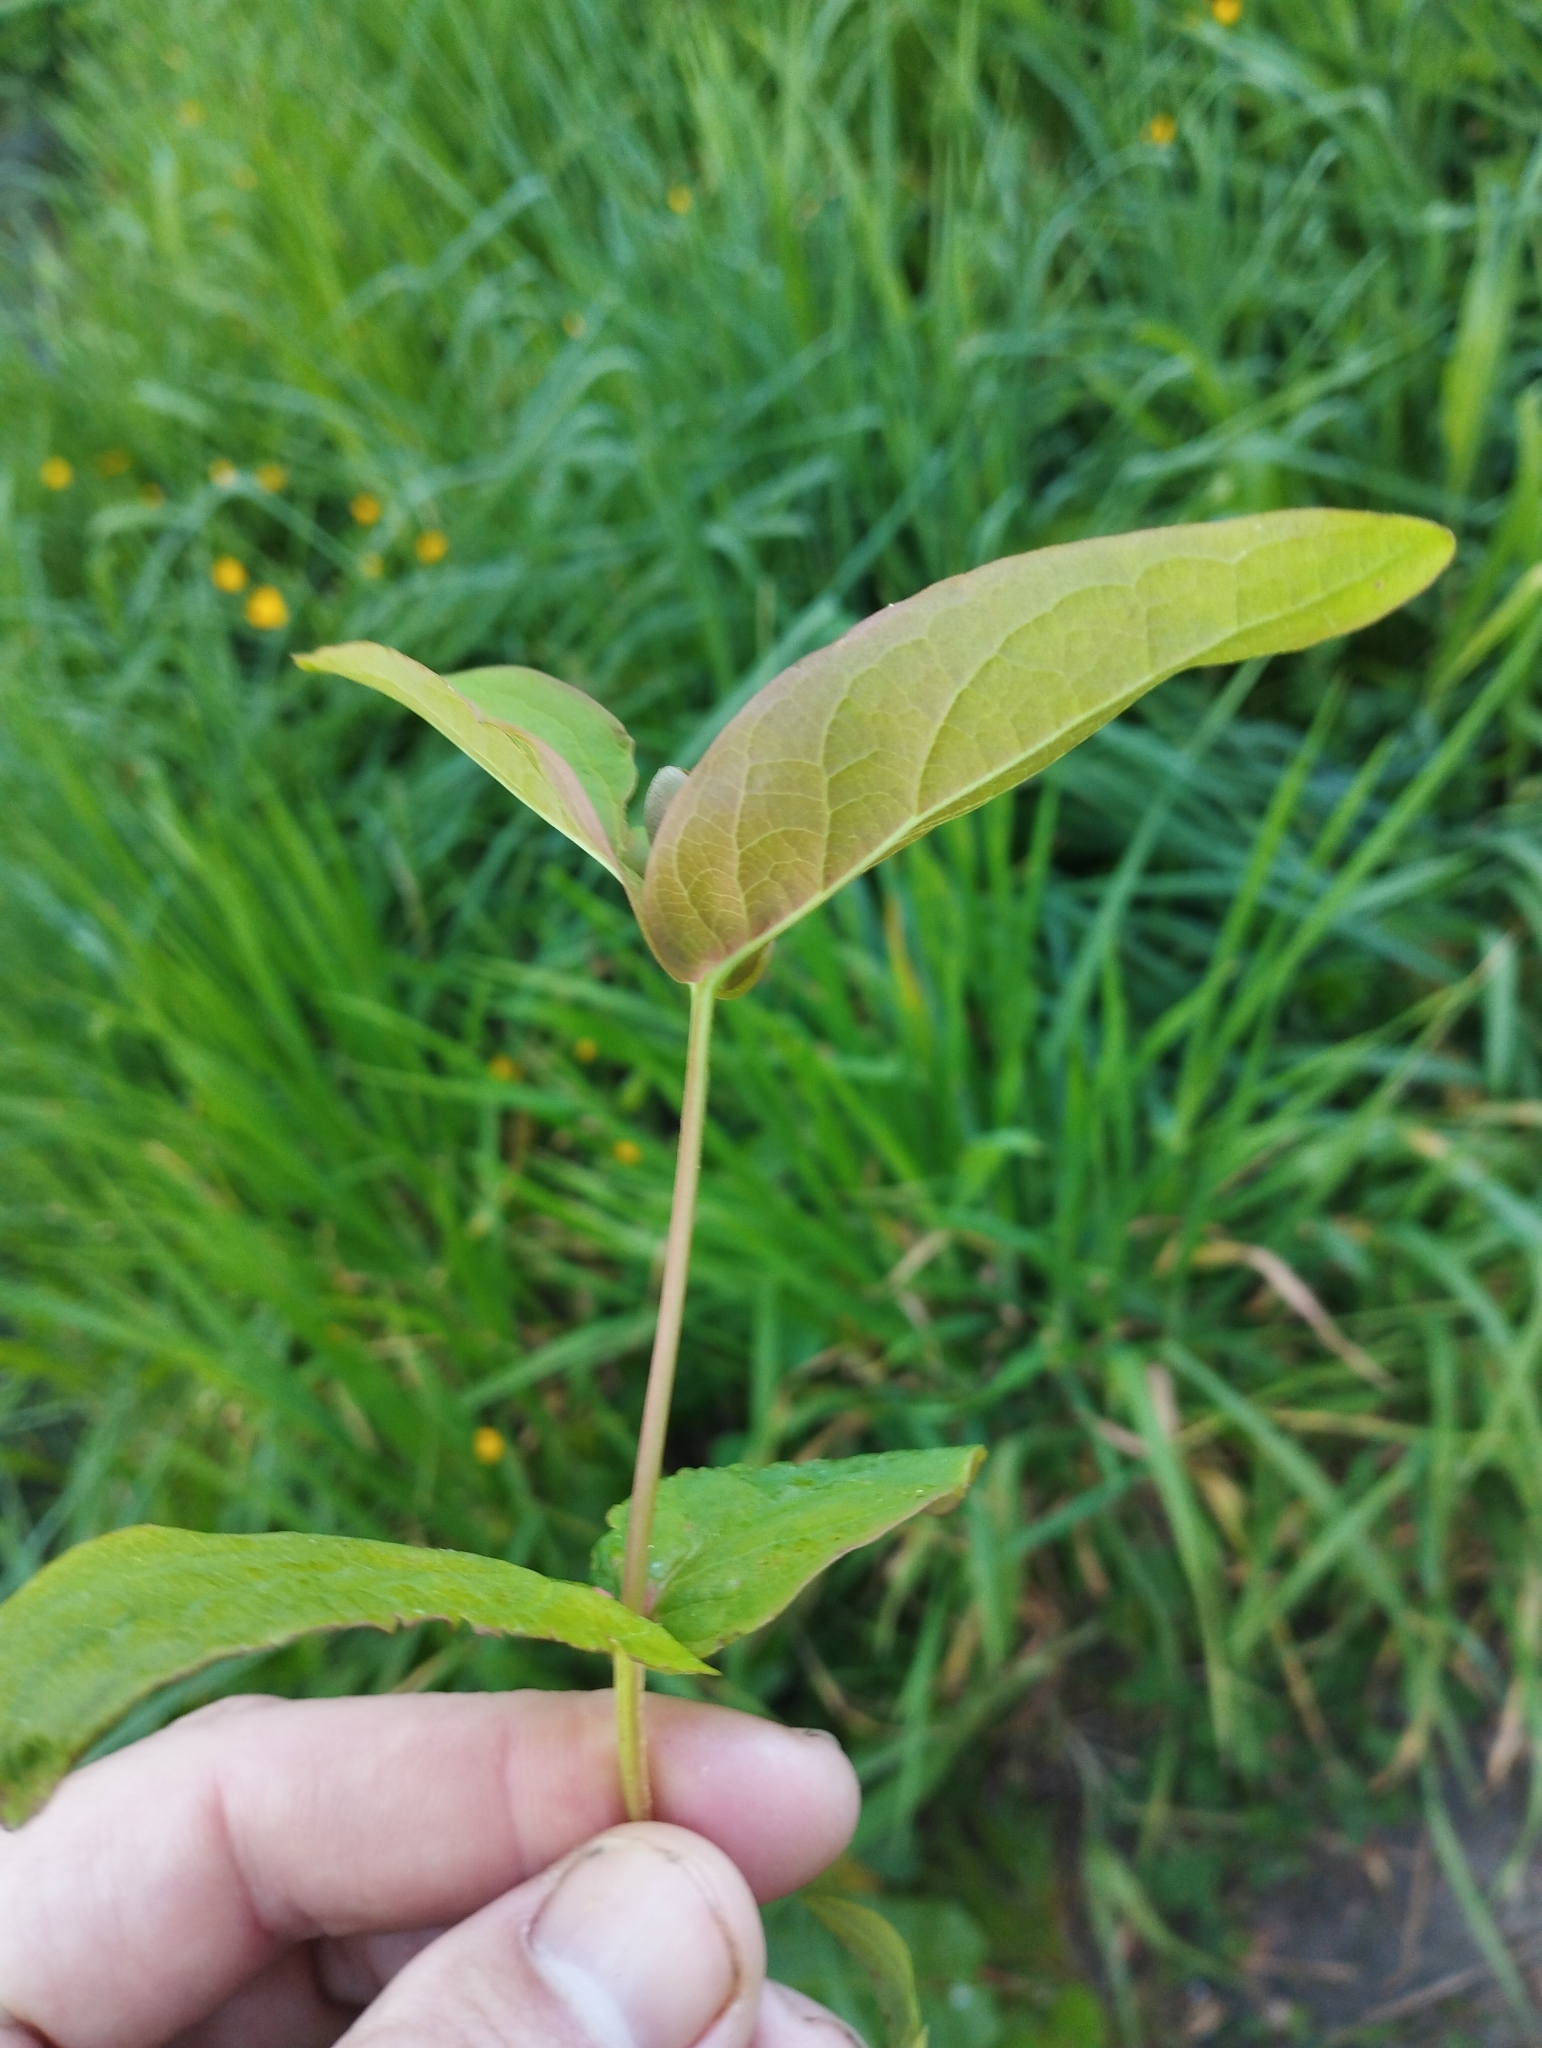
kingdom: Plantae
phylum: Tracheophyta
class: Magnoliopsida
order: Malpighiales
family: Hypericaceae
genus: Hypericum
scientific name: Hypericum androsaemum
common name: Sweet-amber
